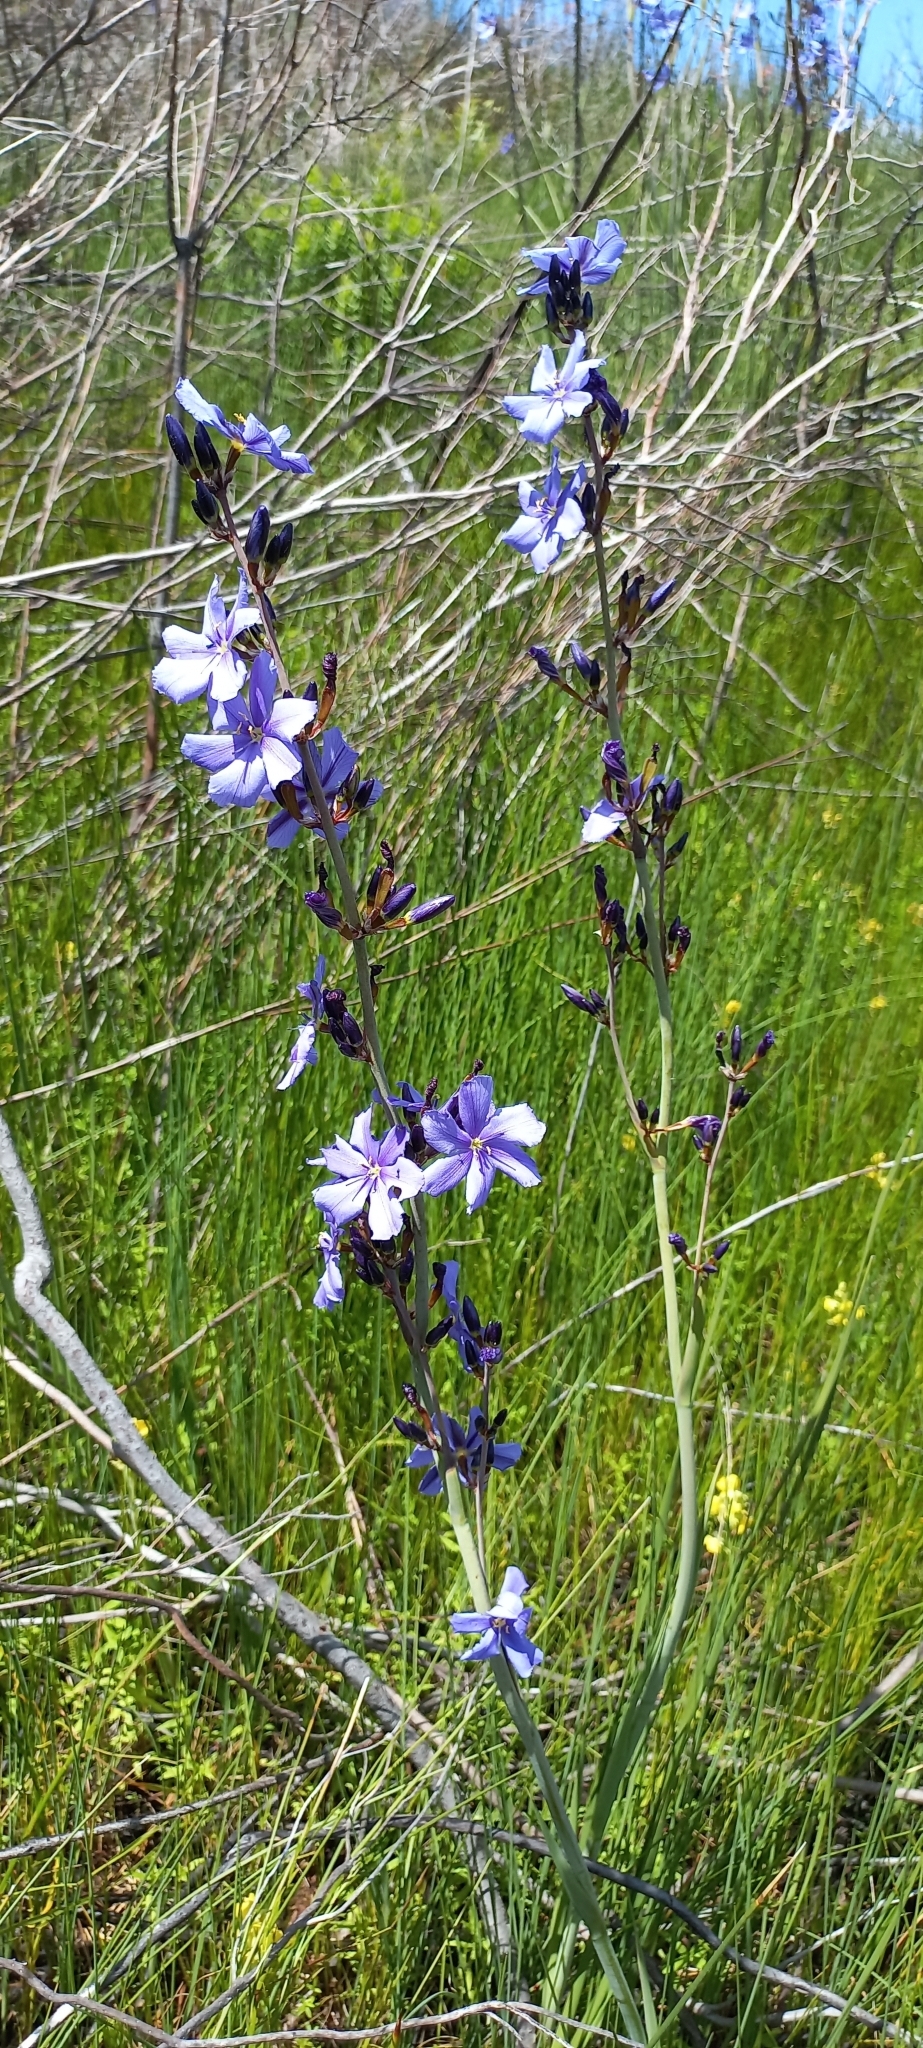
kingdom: Plantae
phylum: Tracheophyta
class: Liliopsida
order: Asparagales
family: Iridaceae
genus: Aristea
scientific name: Aristea bakeri
